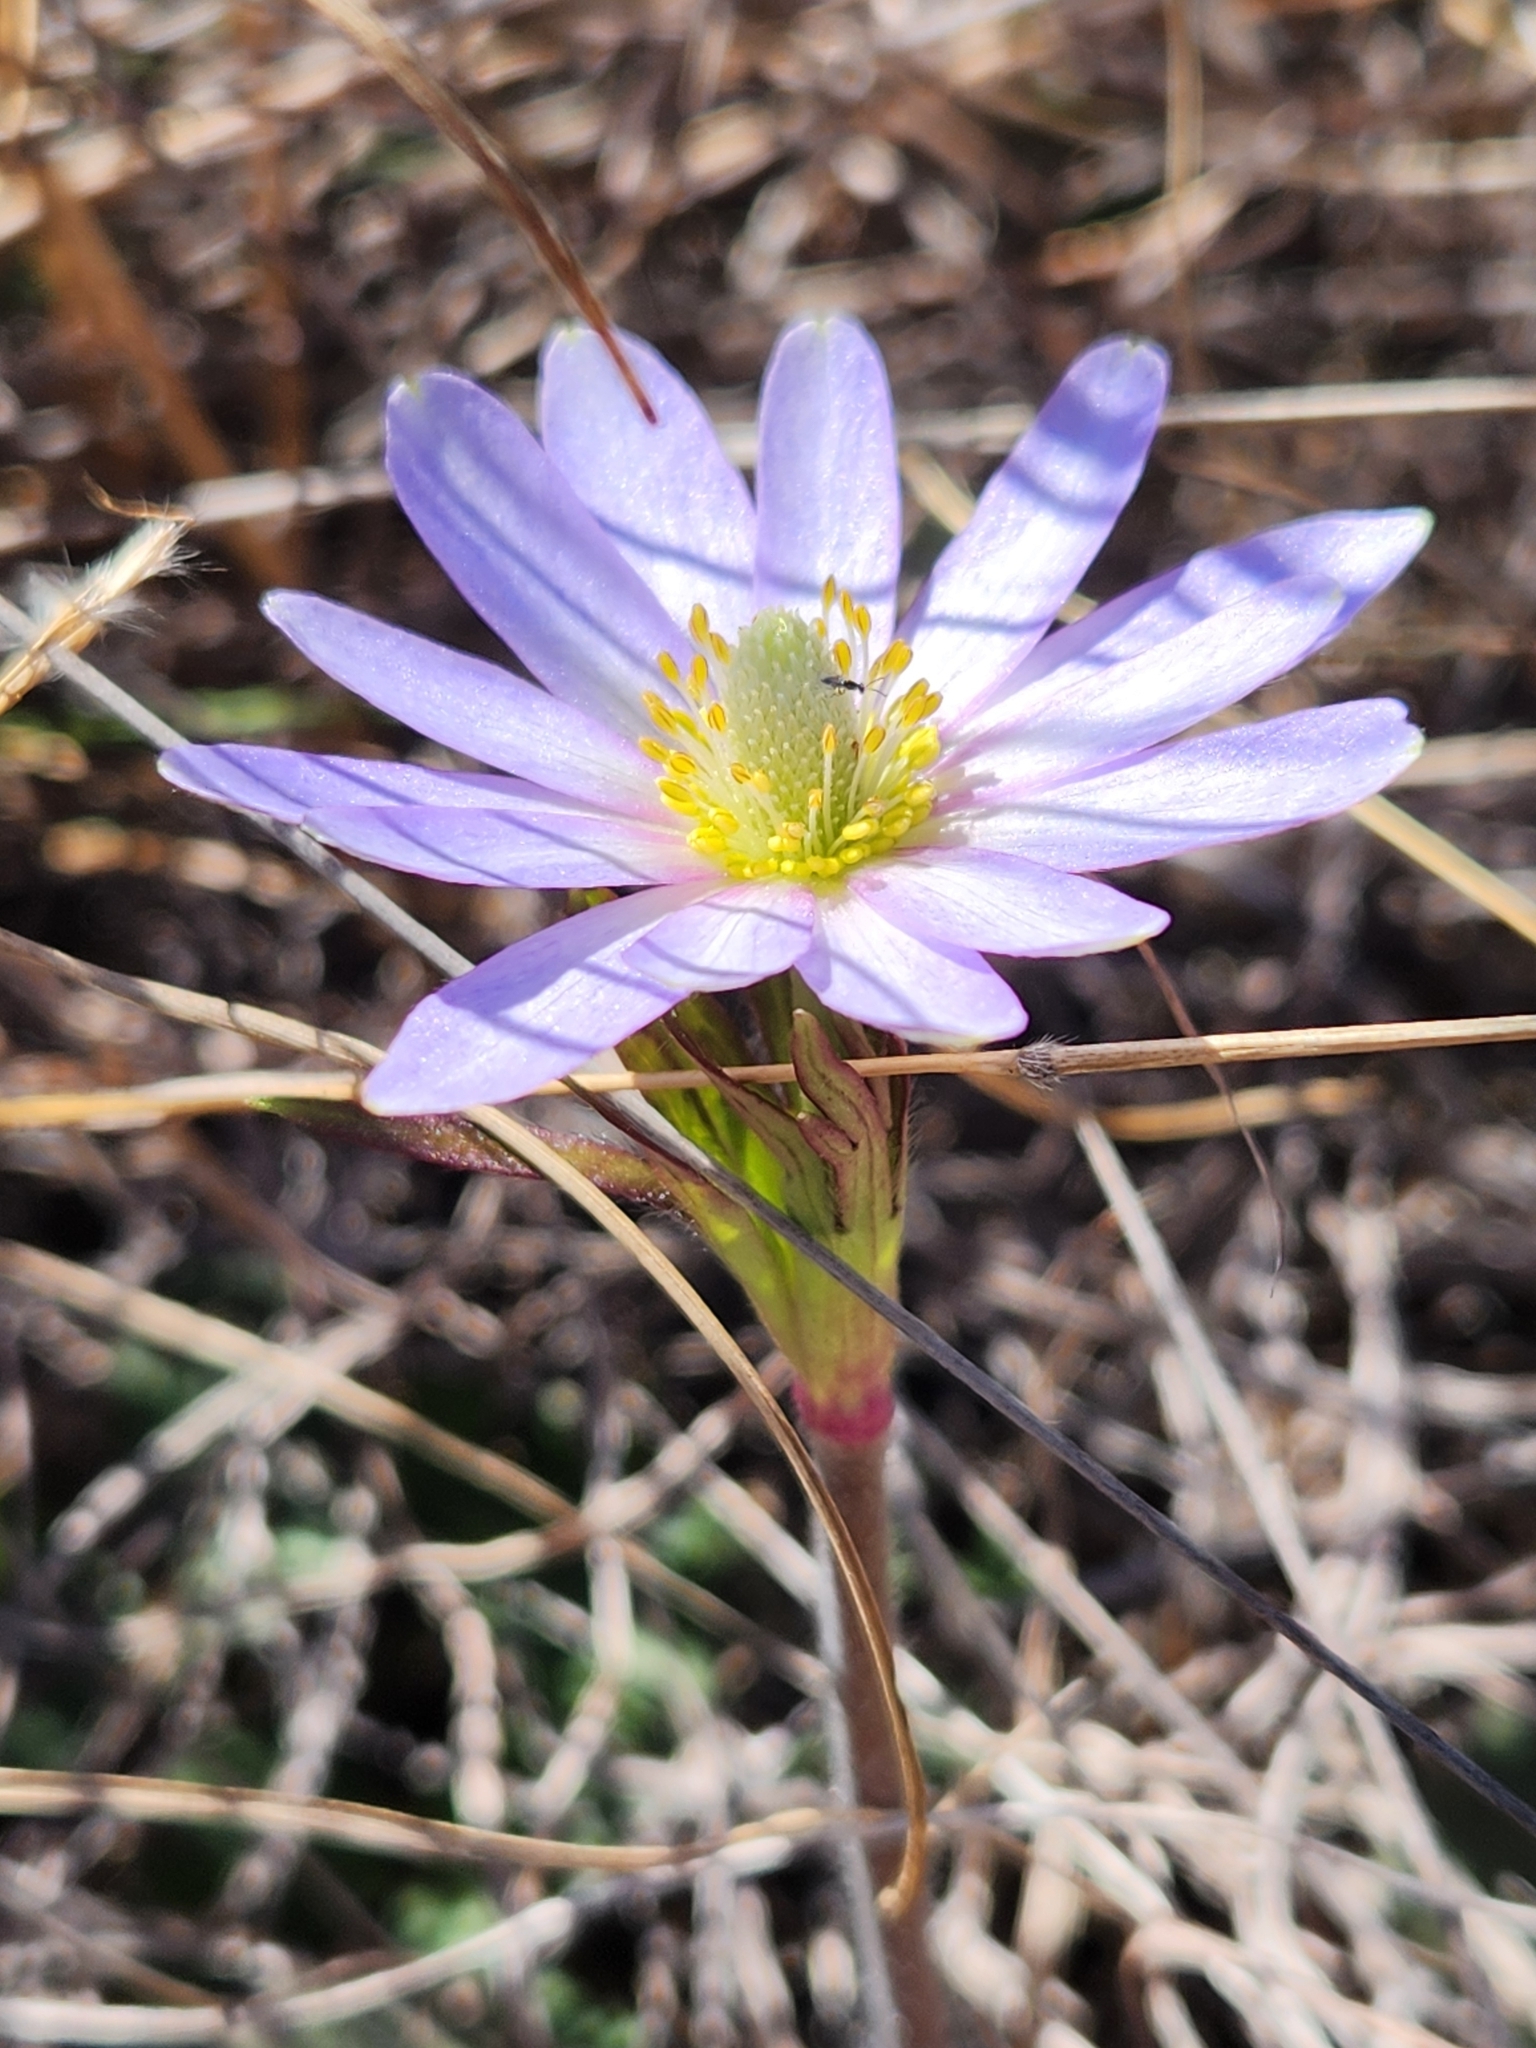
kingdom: Plantae
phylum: Tracheophyta
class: Magnoliopsida
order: Ranunculales
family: Ranunculaceae
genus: Anemone
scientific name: Anemone berlandieri
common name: Ten-petal anemone
